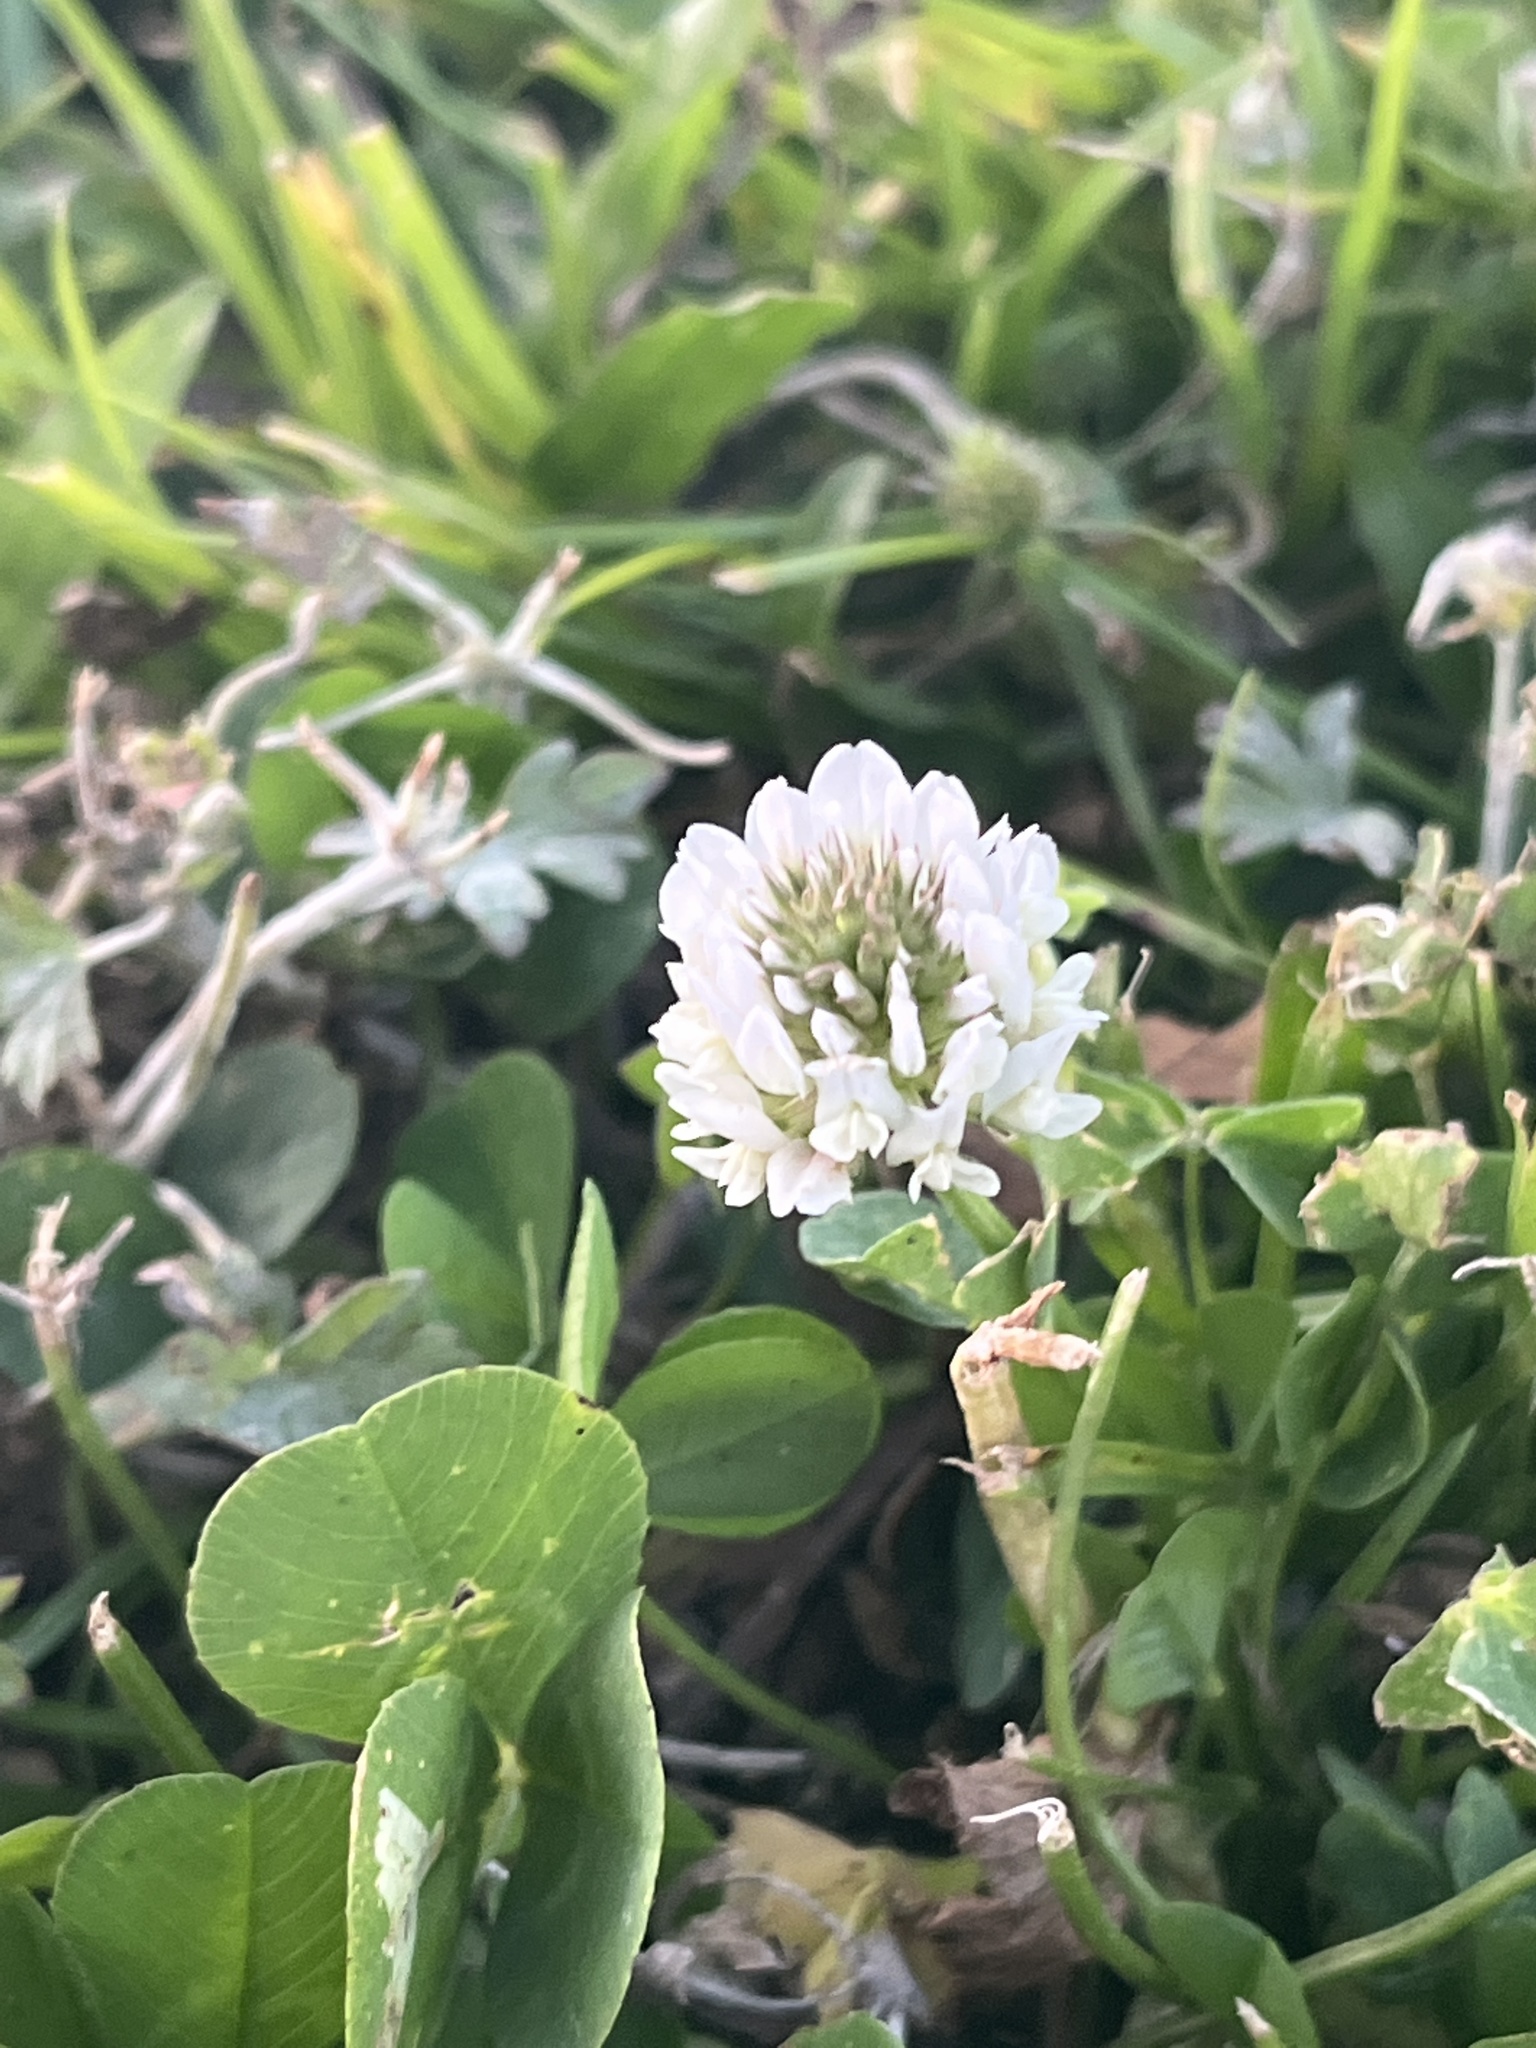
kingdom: Plantae
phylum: Tracheophyta
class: Magnoliopsida
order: Fabales
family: Fabaceae
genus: Trifolium
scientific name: Trifolium repens
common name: White clover
